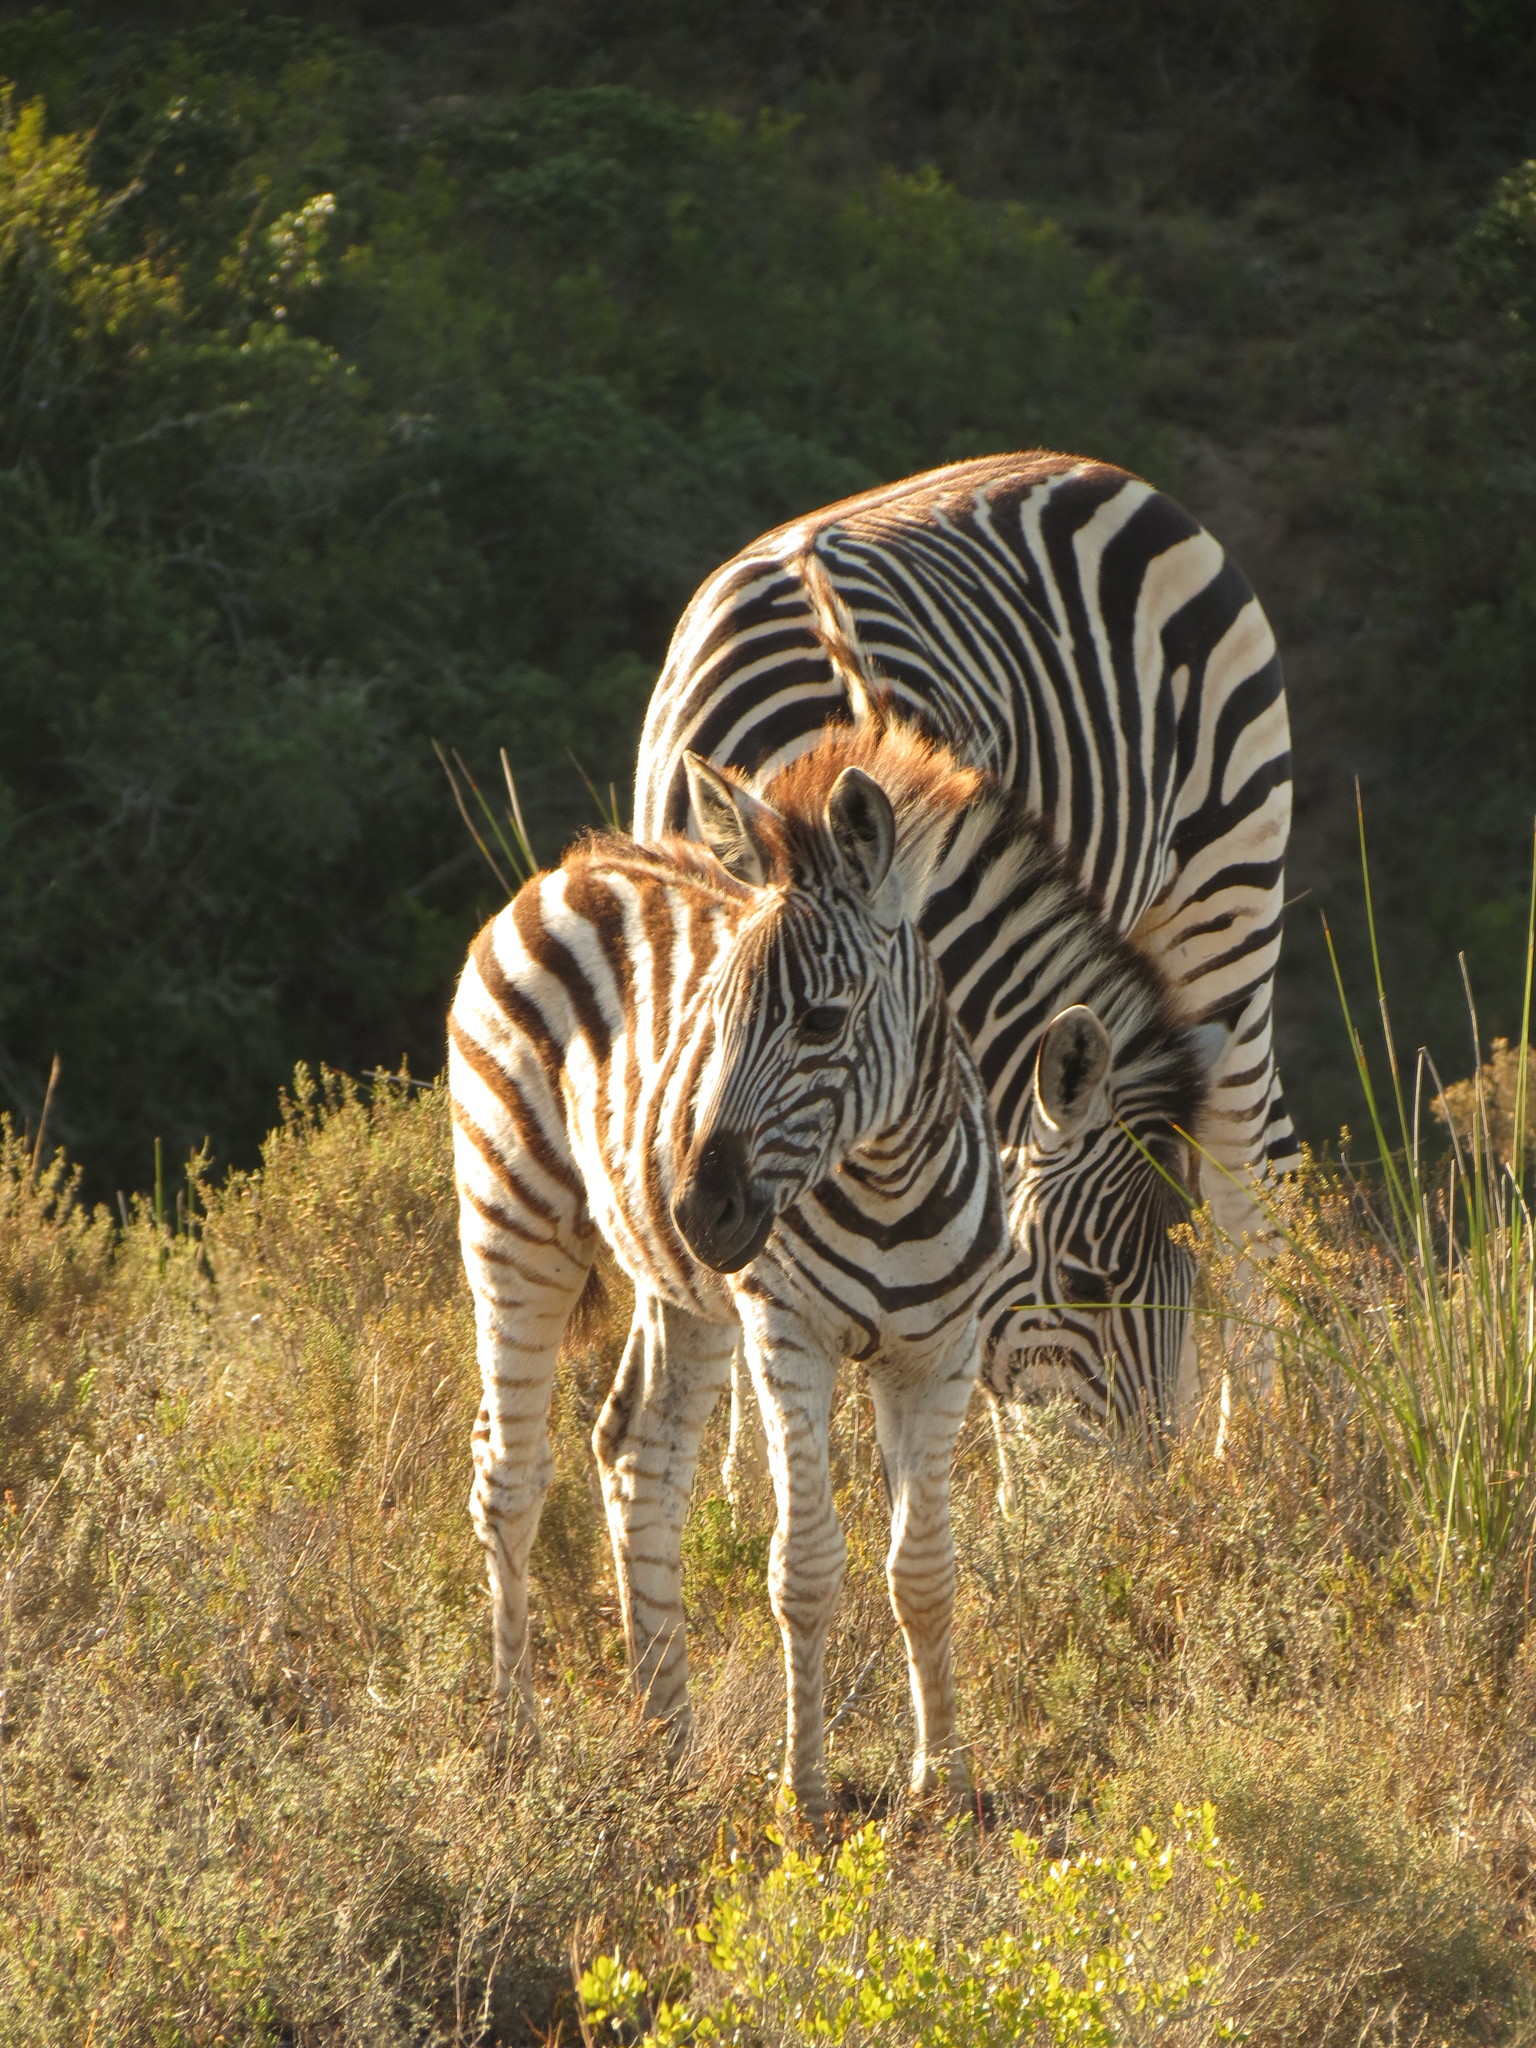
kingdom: Animalia
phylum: Chordata
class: Mammalia
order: Perissodactyla
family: Equidae
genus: Equus
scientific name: Equus quagga
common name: Plains zebra
